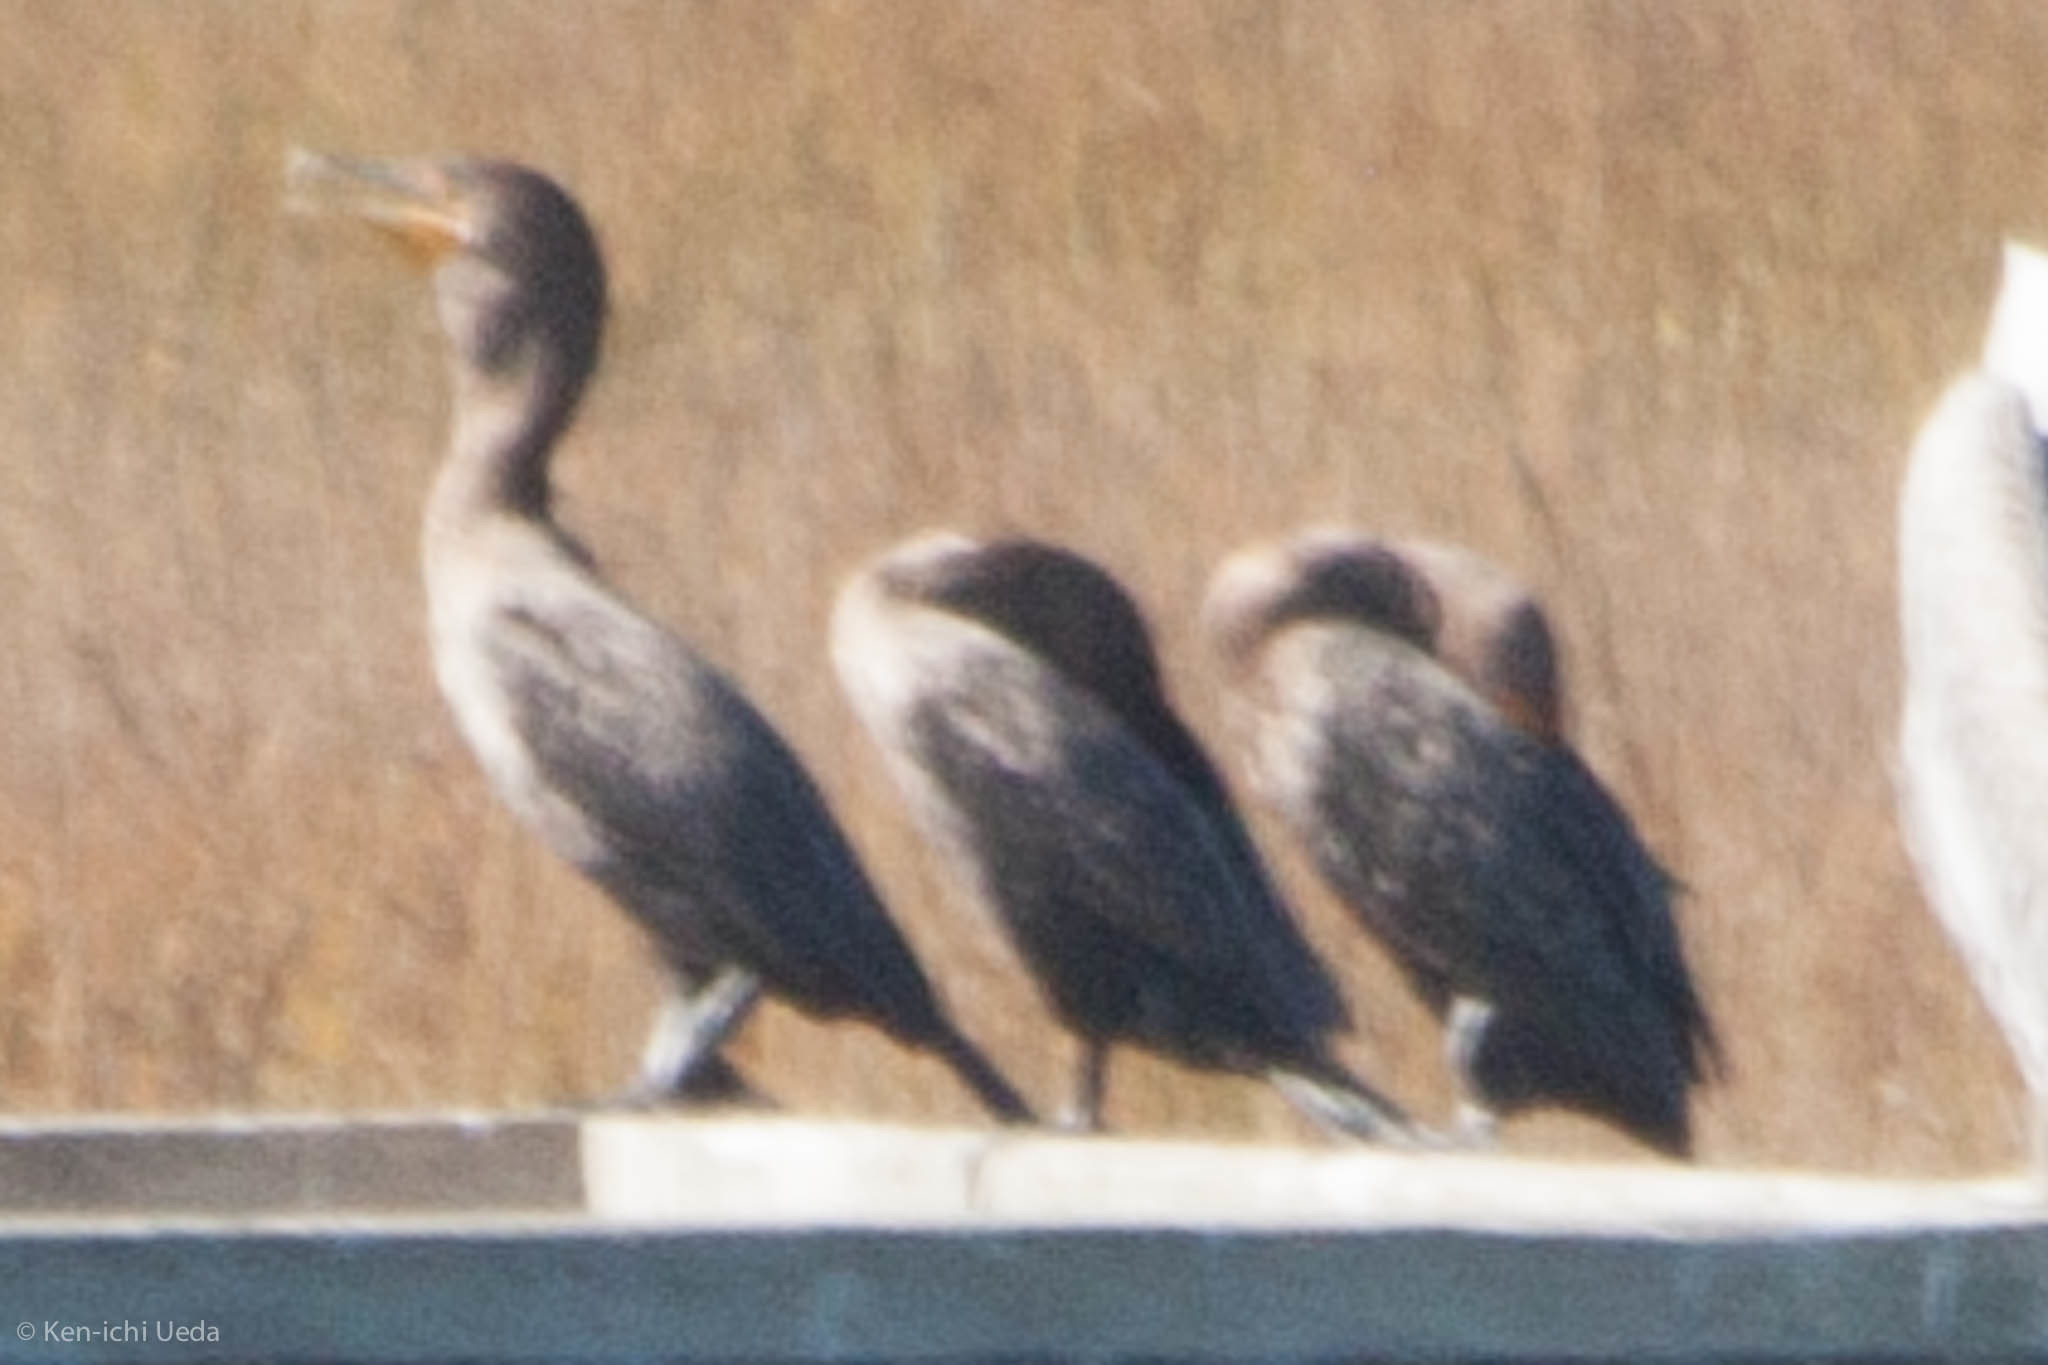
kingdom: Animalia
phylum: Chordata
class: Aves
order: Suliformes
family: Phalacrocoracidae
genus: Phalacrocorax
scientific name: Phalacrocorax auritus
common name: Double-crested cormorant
